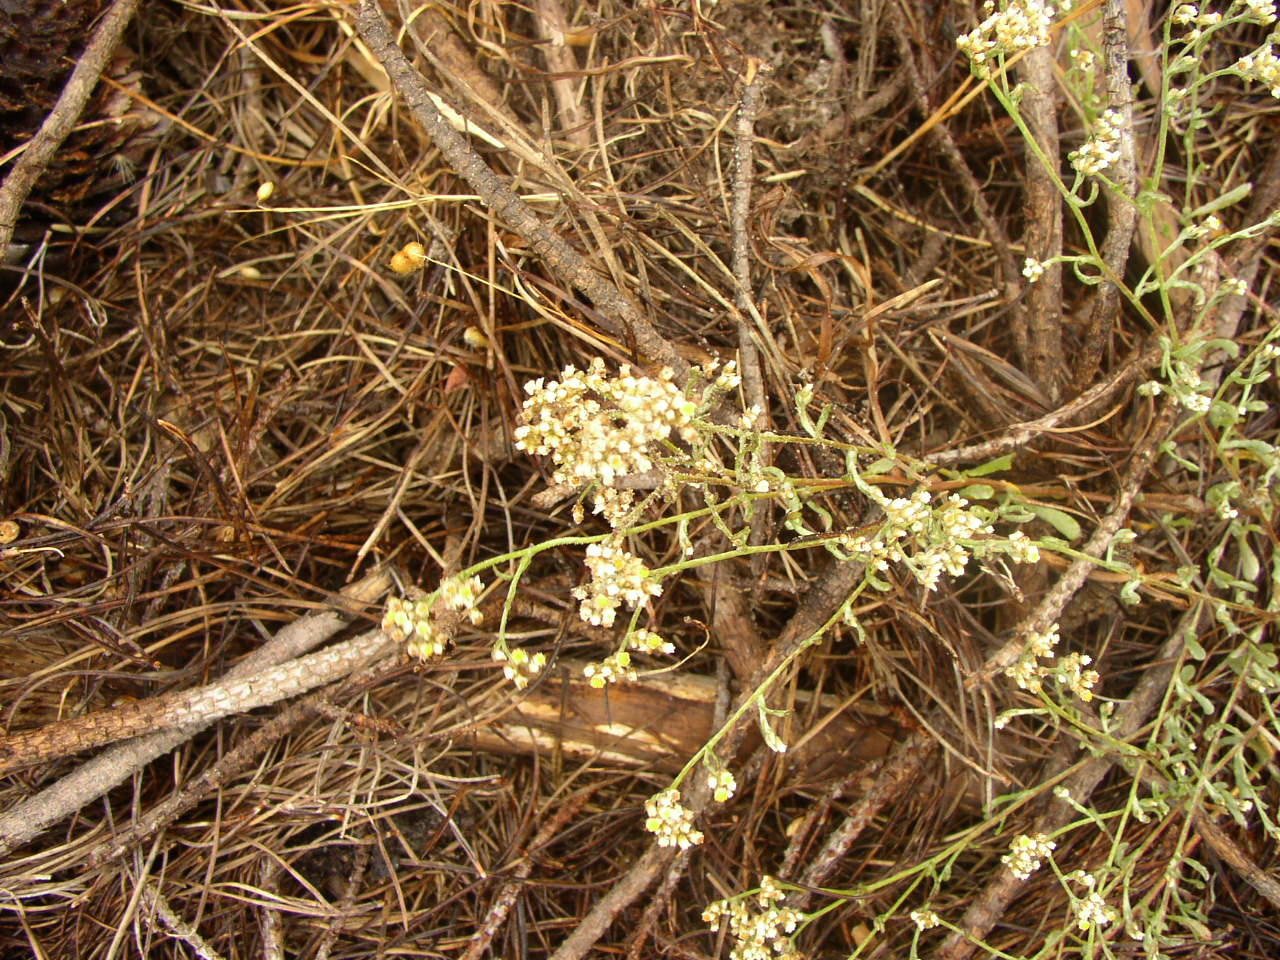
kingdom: Plantae
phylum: Tracheophyta
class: Magnoliopsida
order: Asterales
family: Asteraceae
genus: Helichrysum
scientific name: Helichrysum indicum
